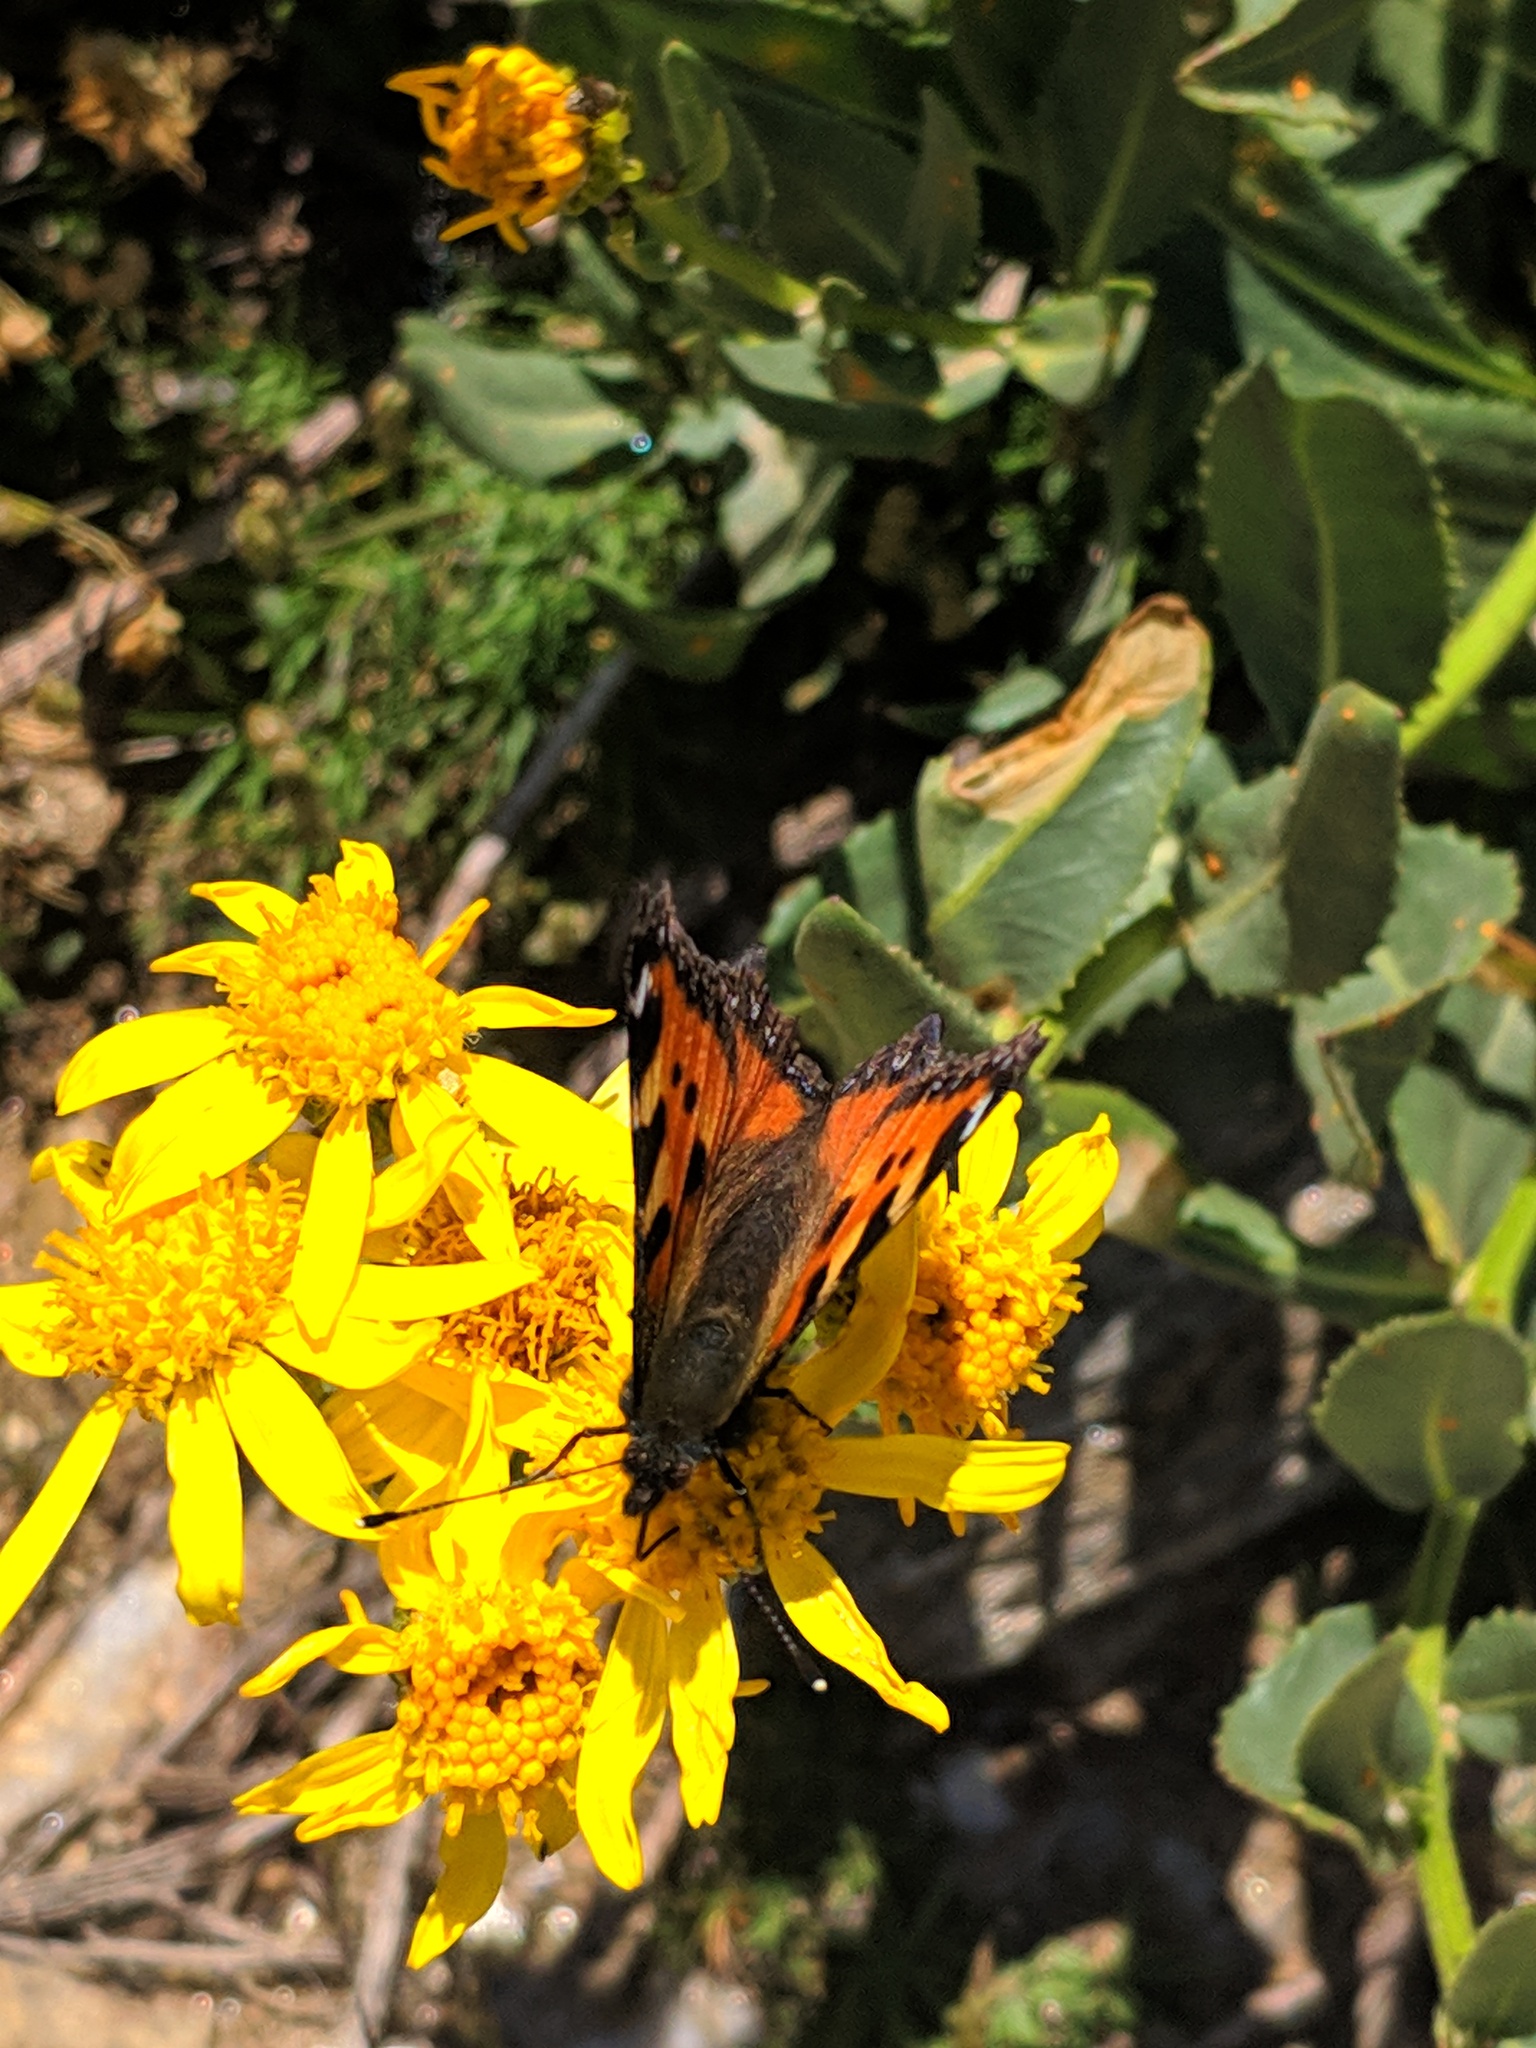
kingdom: Animalia
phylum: Arthropoda
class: Insecta
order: Lepidoptera
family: Nymphalidae
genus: Aglais
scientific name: Aglais urticae
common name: Small tortoiseshell
